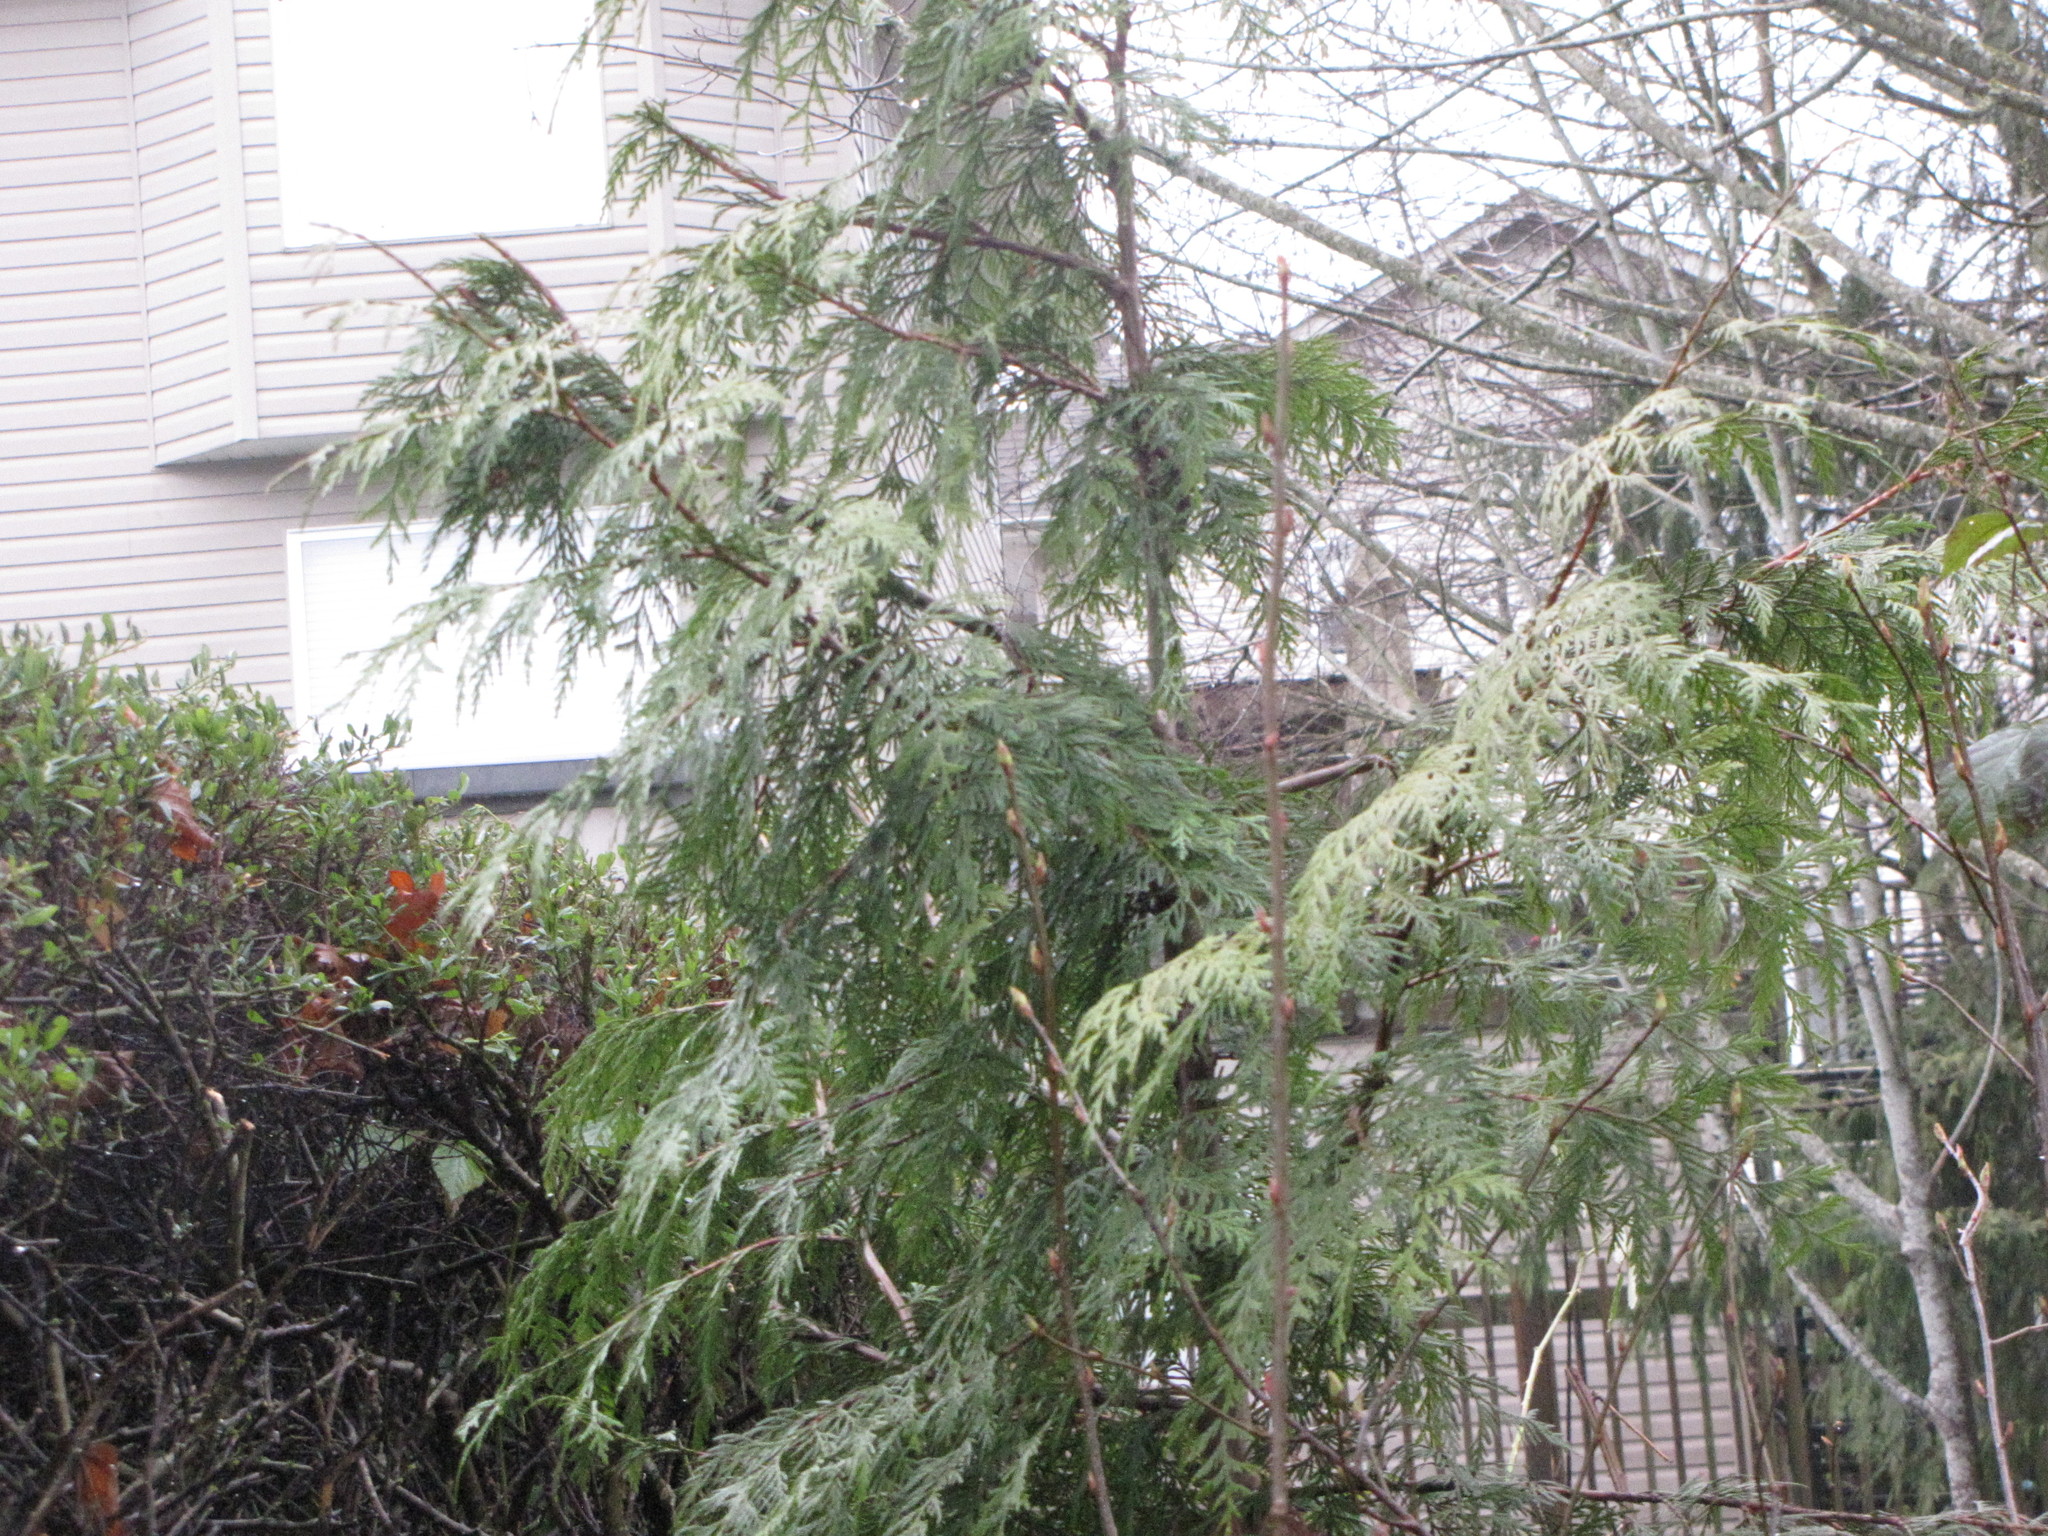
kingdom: Plantae
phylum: Tracheophyta
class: Pinopsida
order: Pinales
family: Cupressaceae
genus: Thuja
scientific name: Thuja plicata
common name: Western red-cedar
